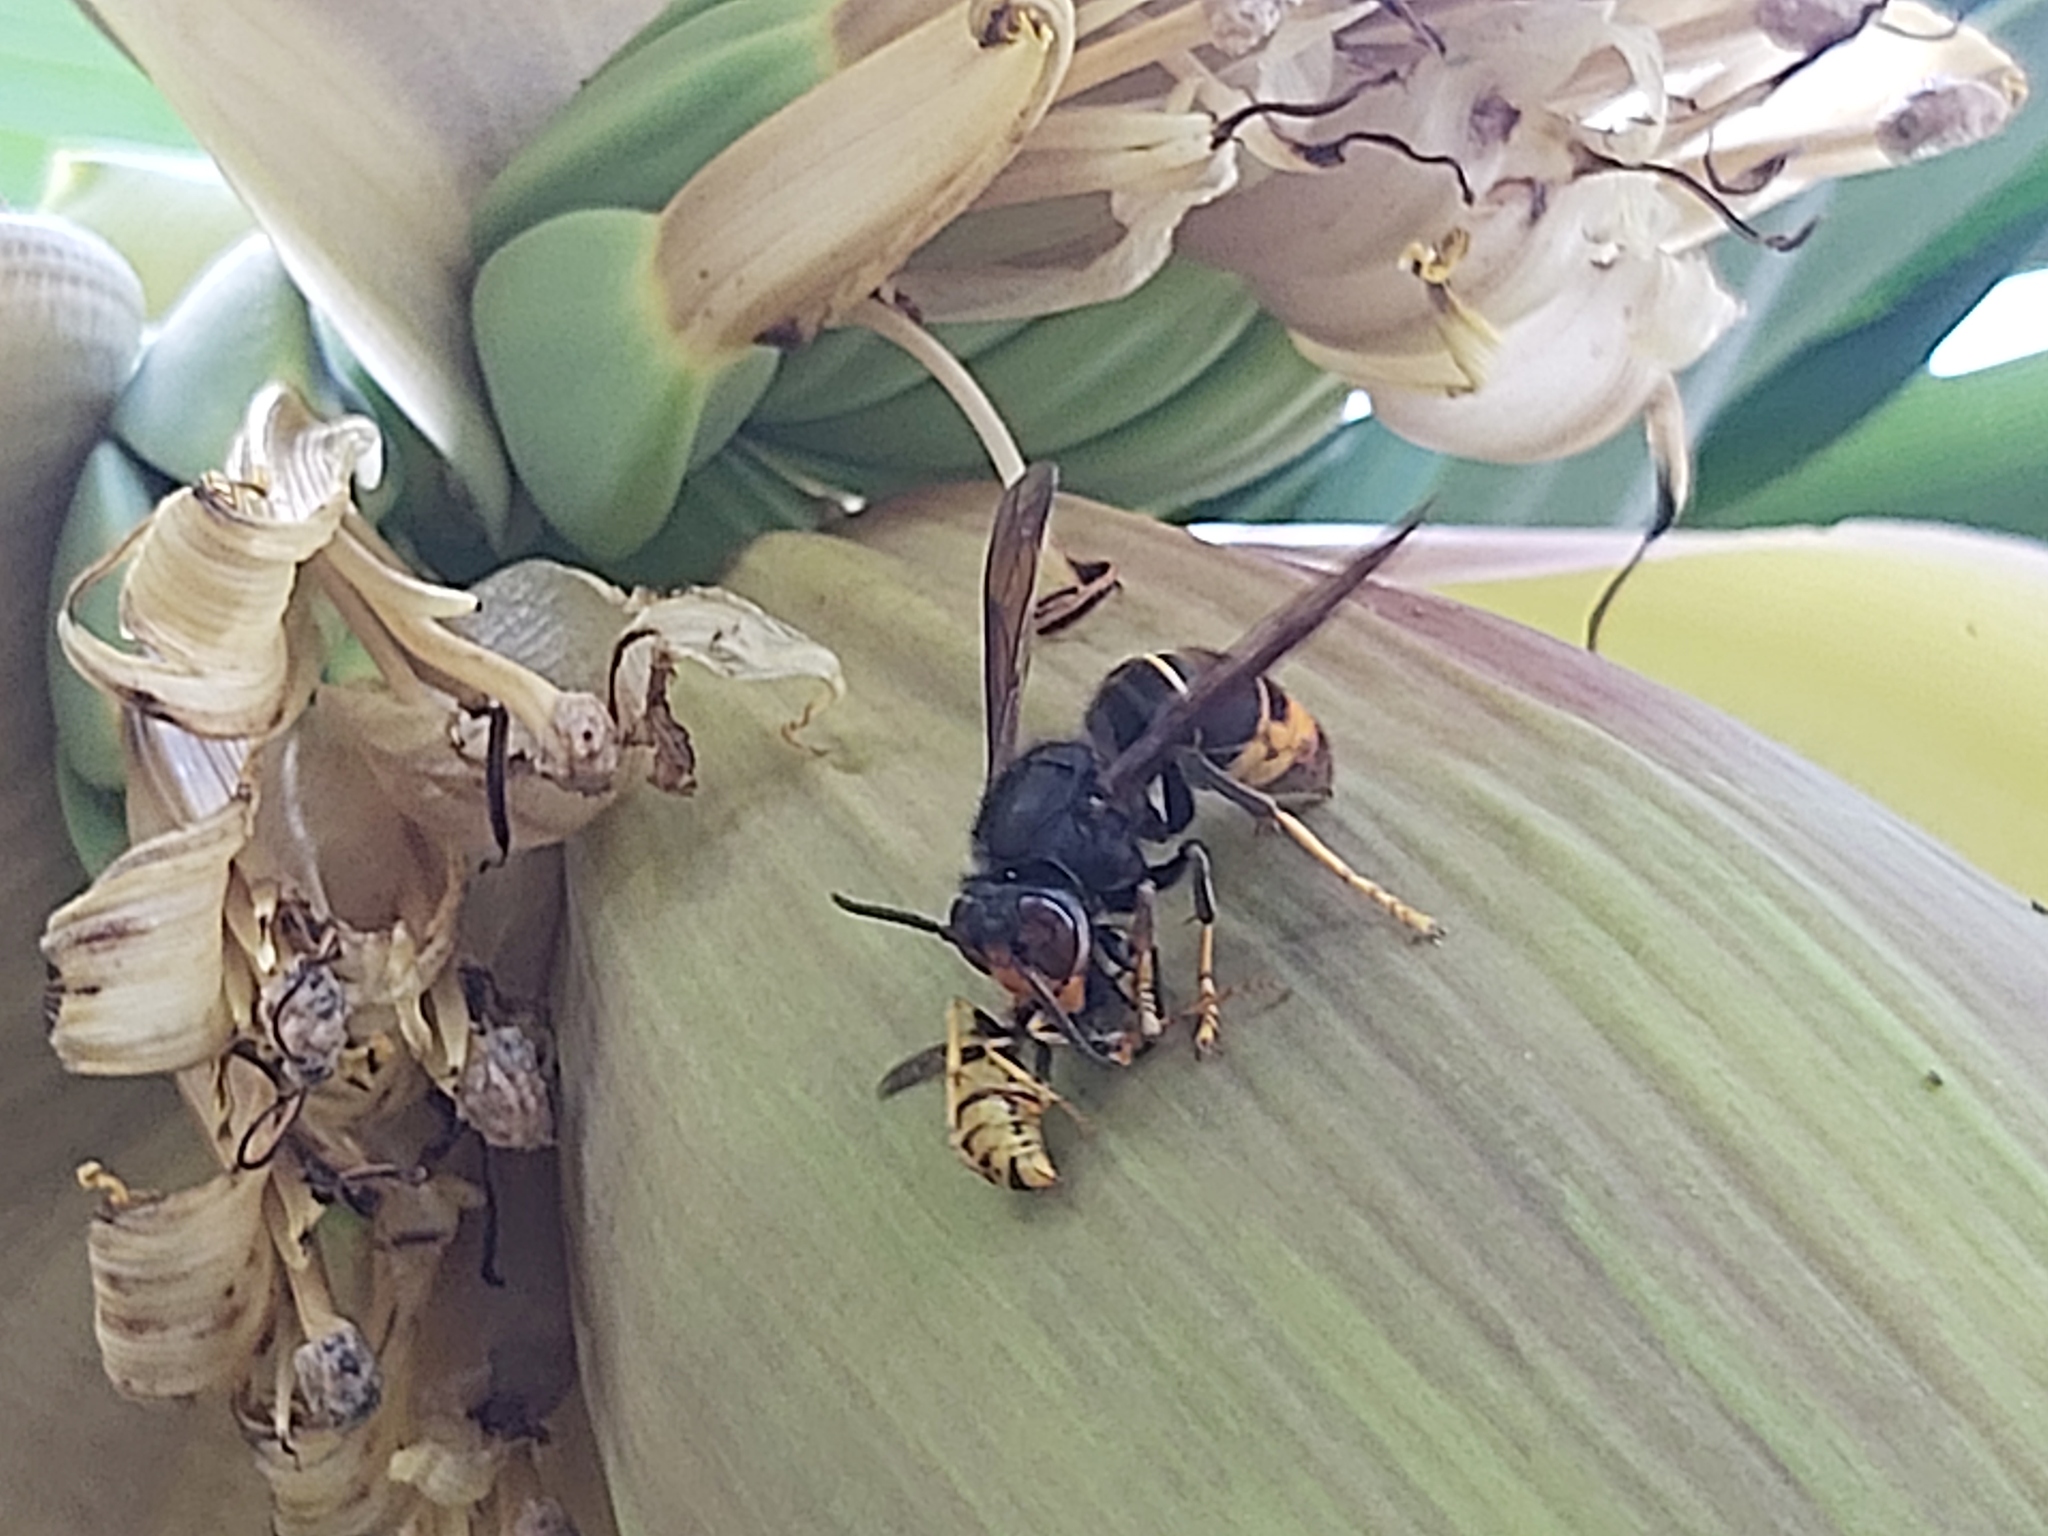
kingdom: Animalia
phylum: Arthropoda
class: Insecta
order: Hymenoptera
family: Vespidae
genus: Vespa
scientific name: Vespa velutina
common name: Asian hornet
